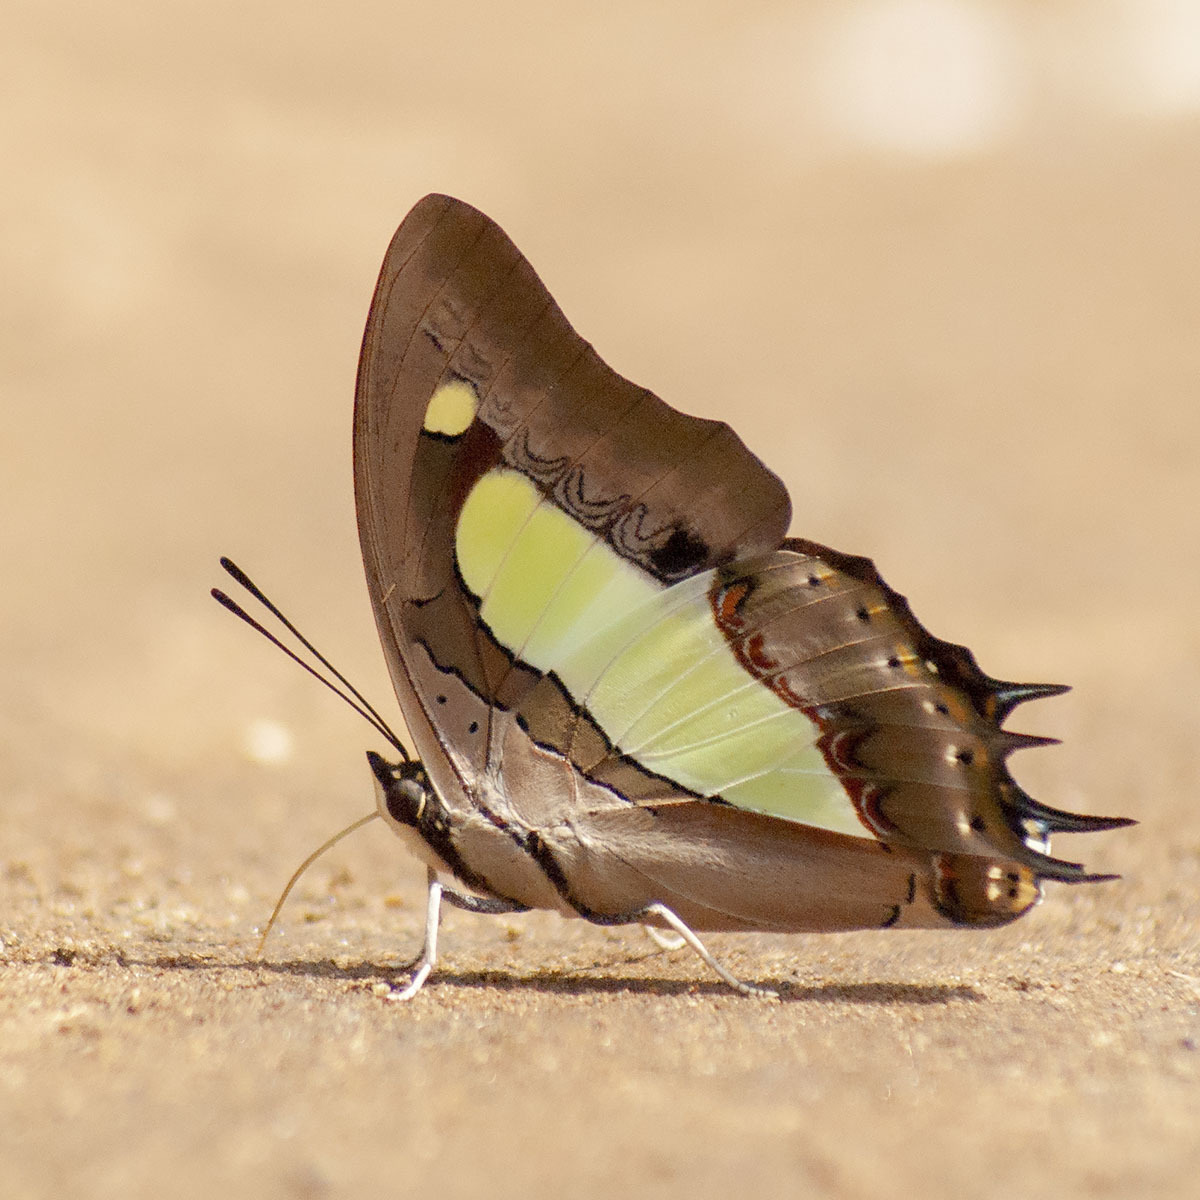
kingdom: Animalia
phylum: Arthropoda
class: Insecta
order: Lepidoptera
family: Nymphalidae
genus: Polyura
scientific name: Polyura
